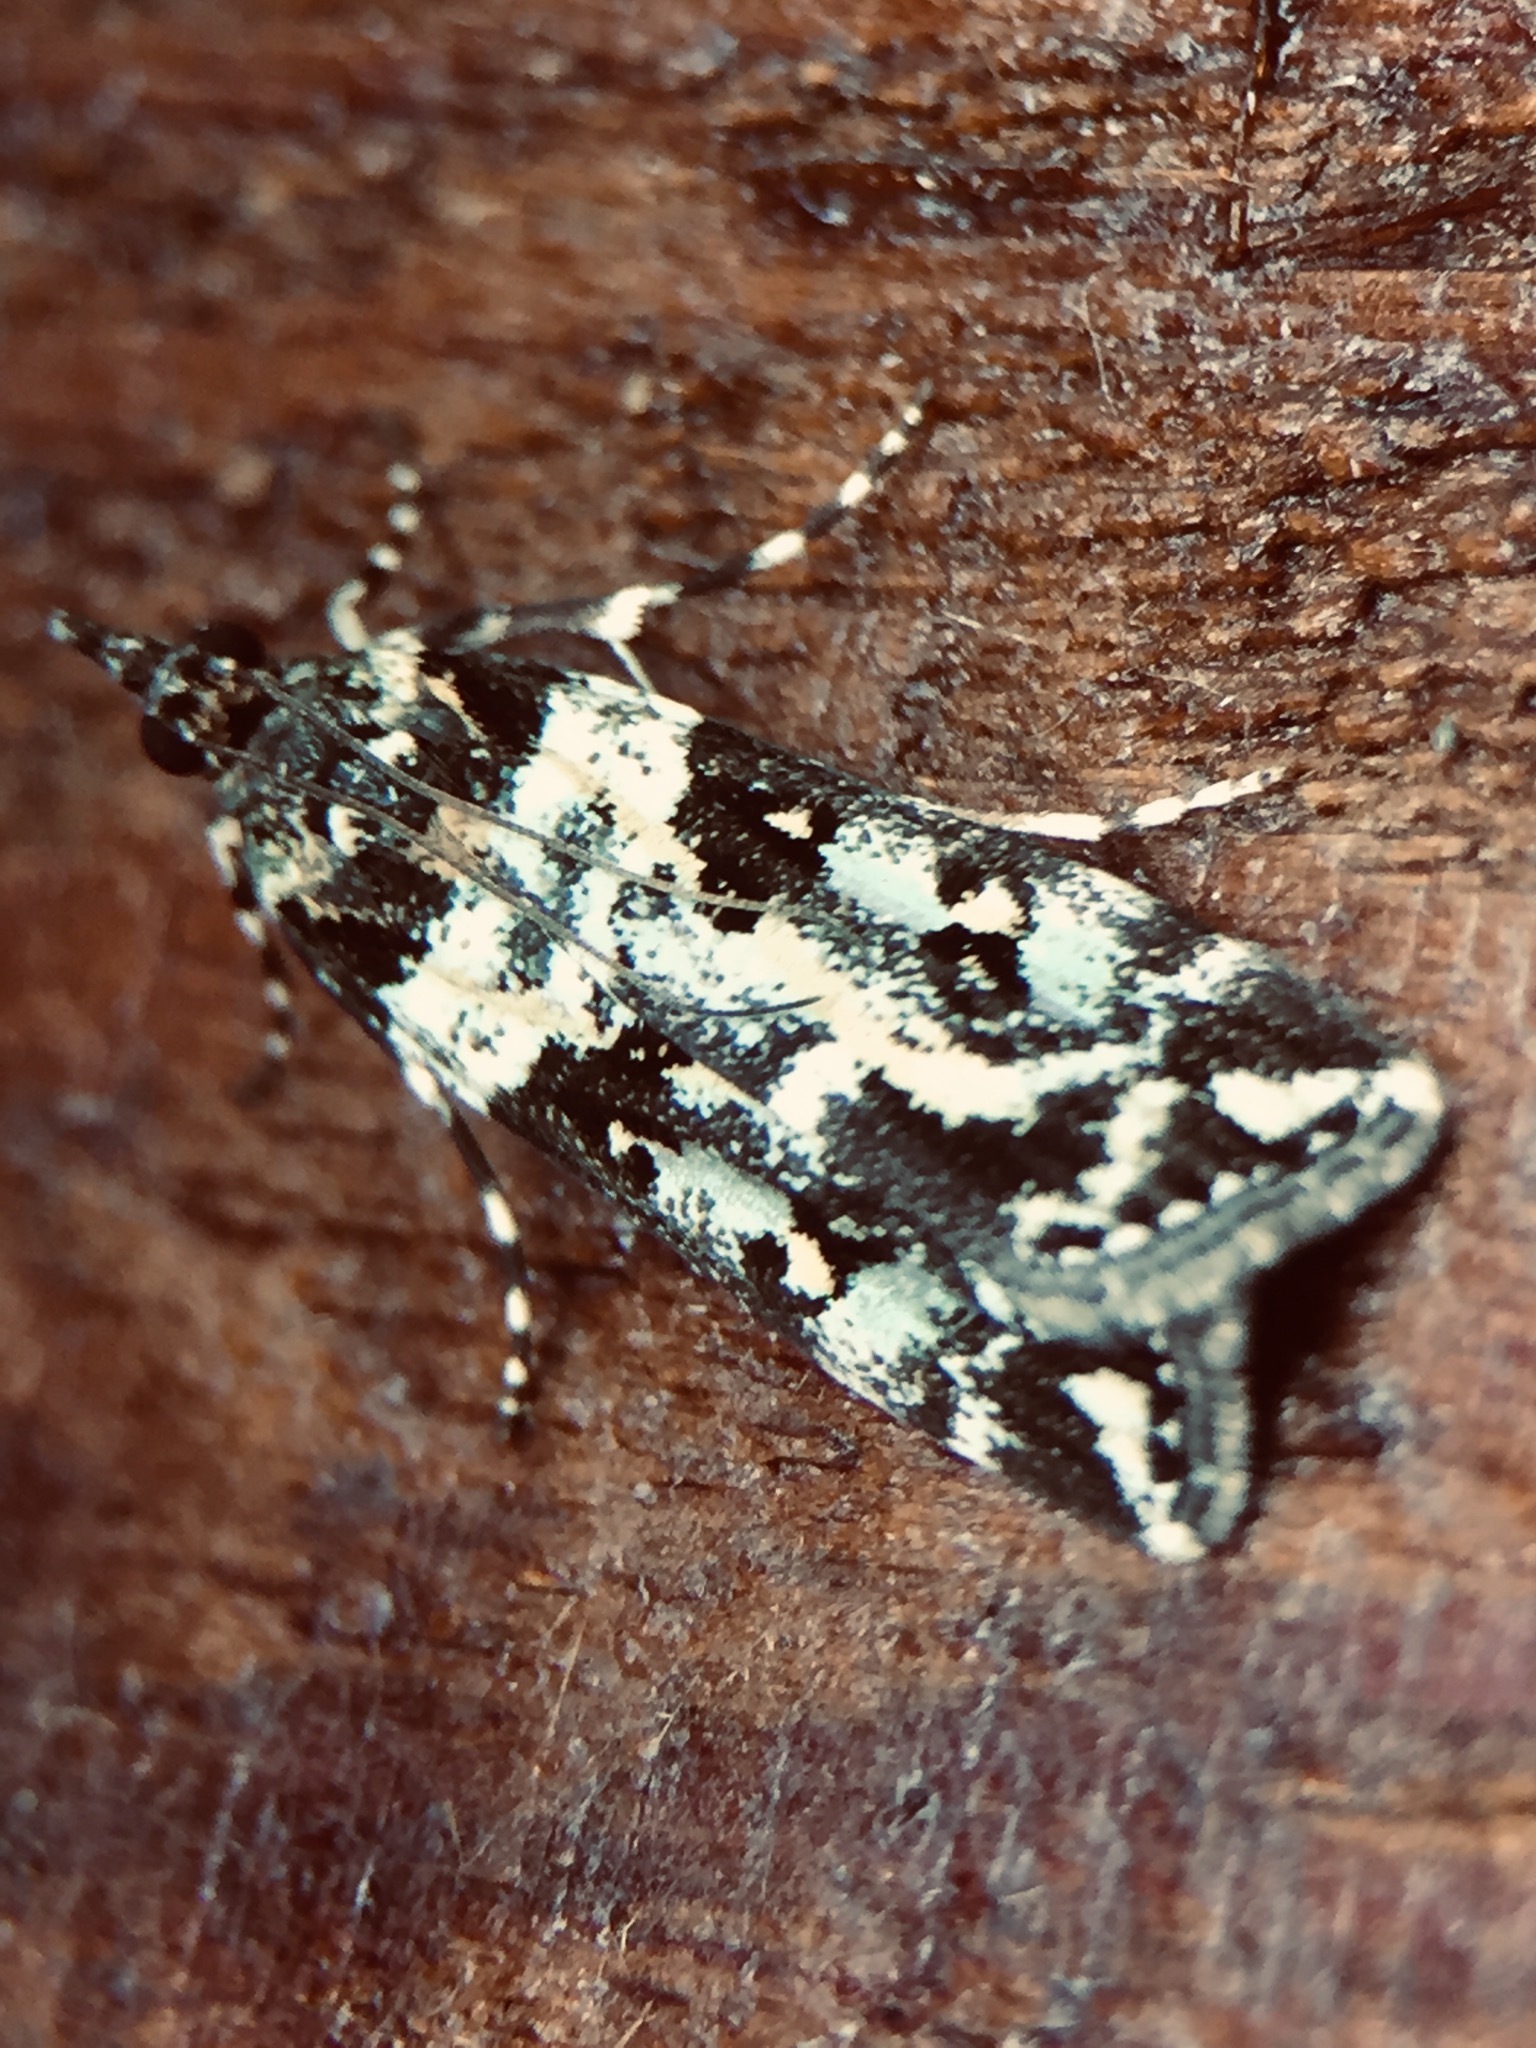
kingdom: Animalia
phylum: Arthropoda
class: Insecta
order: Lepidoptera
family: Crambidae
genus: Eudonia
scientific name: Eudonia diphtheralis
